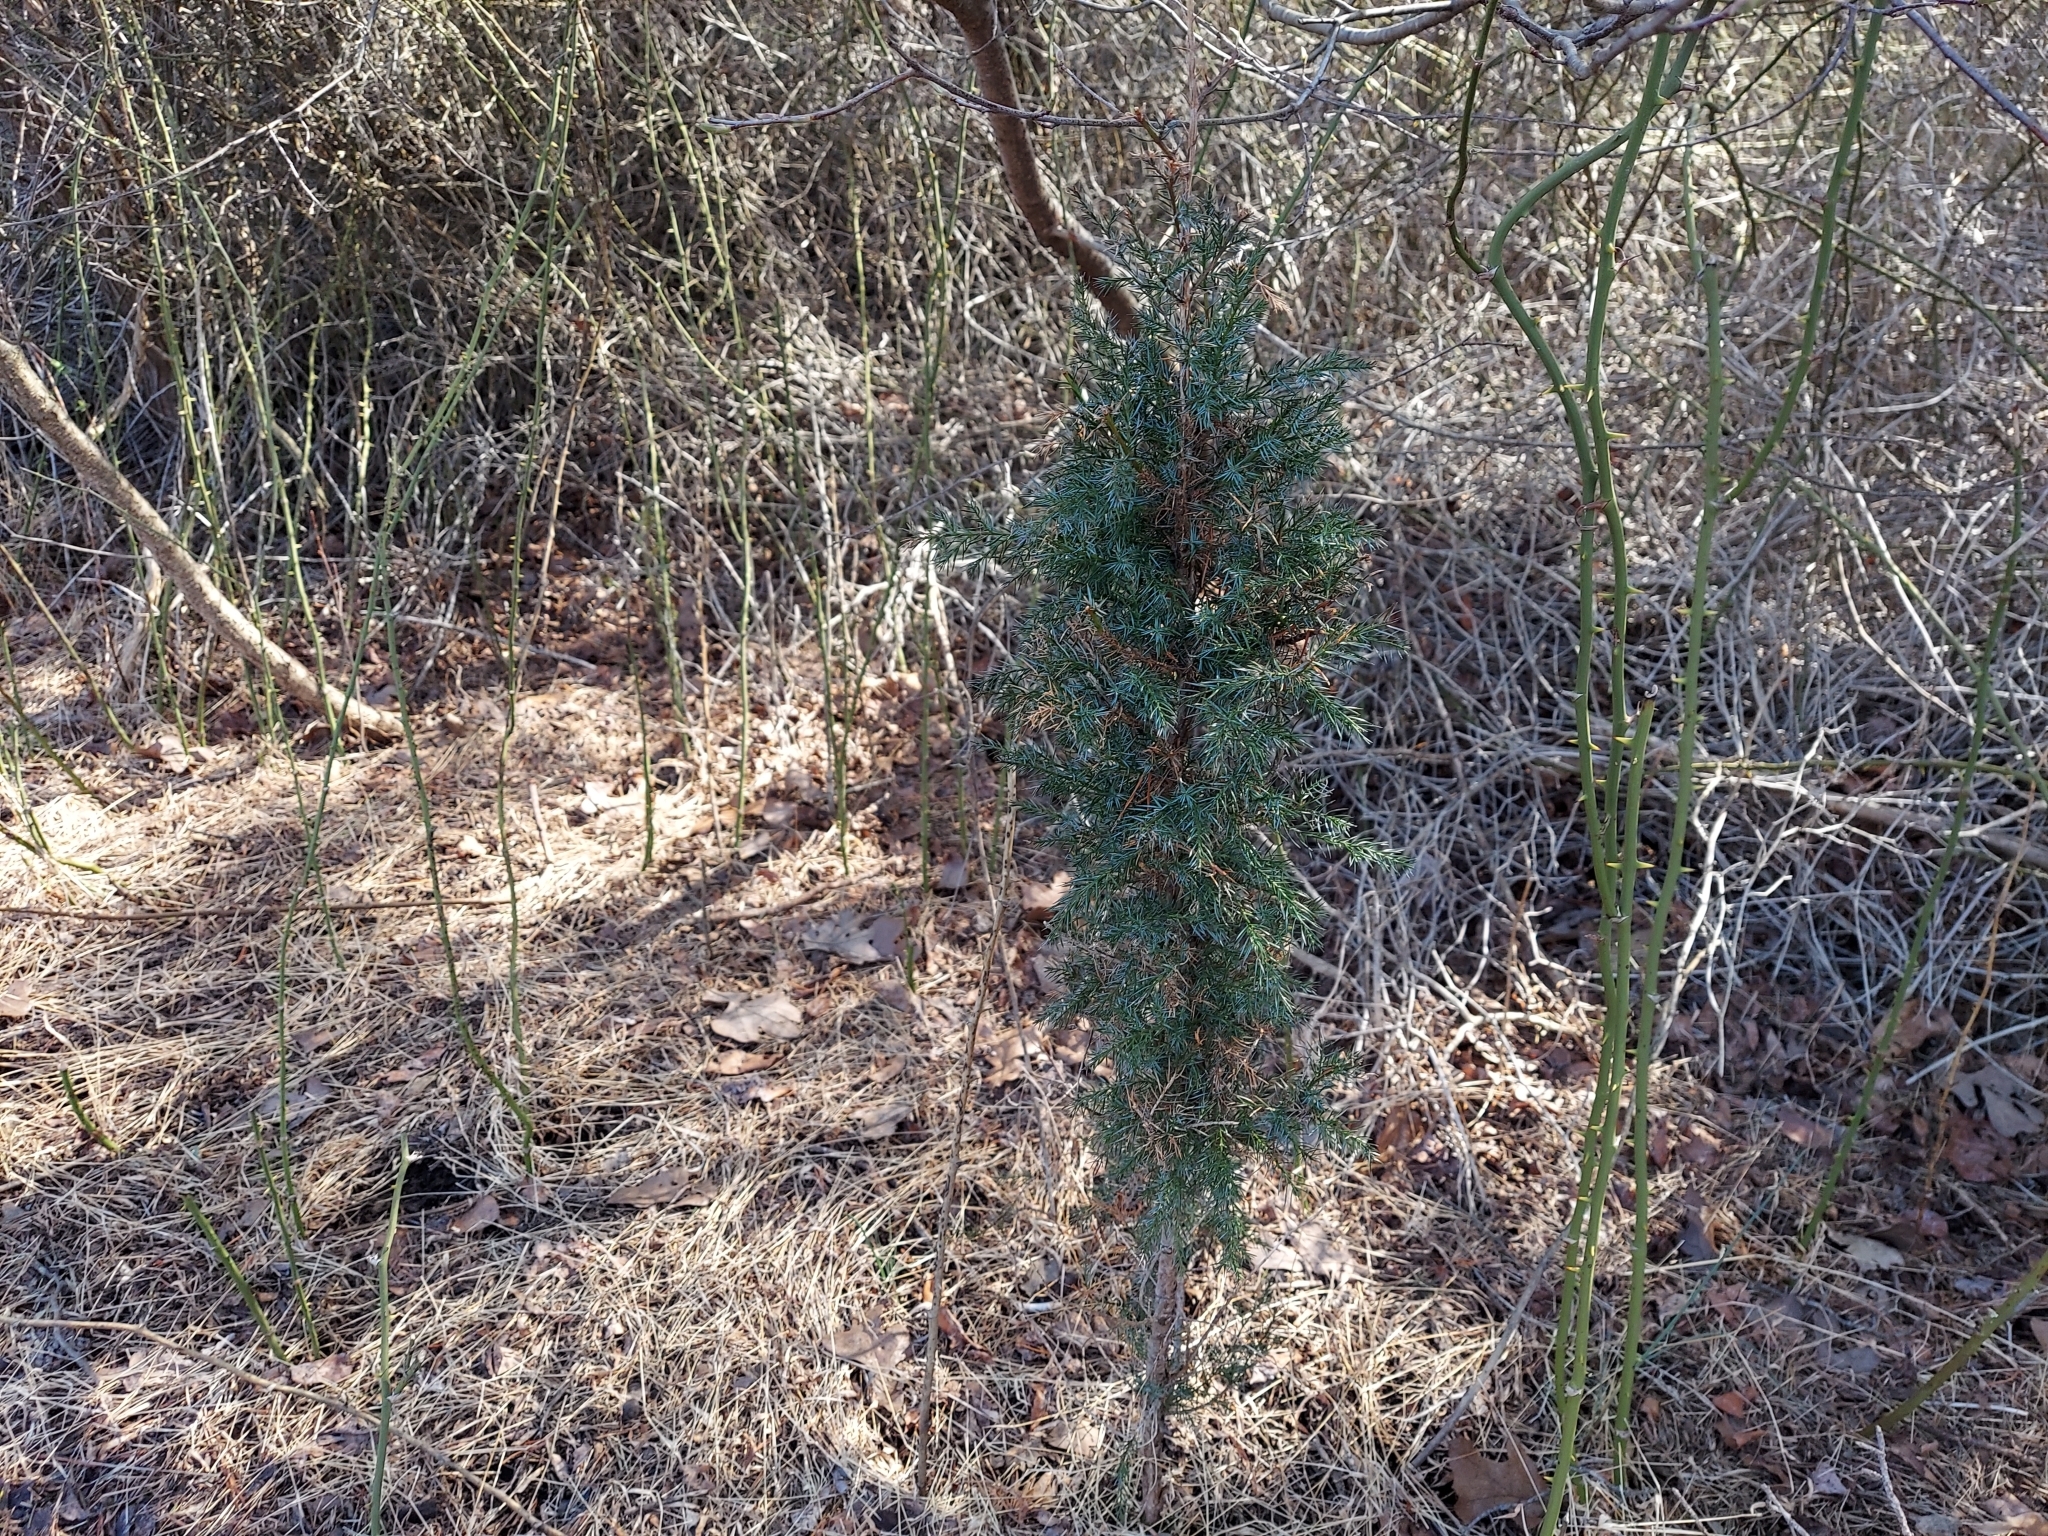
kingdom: Plantae
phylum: Tracheophyta
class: Pinopsida
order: Pinales
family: Cupressaceae
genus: Juniperus
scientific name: Juniperus virginiana
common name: Red juniper
